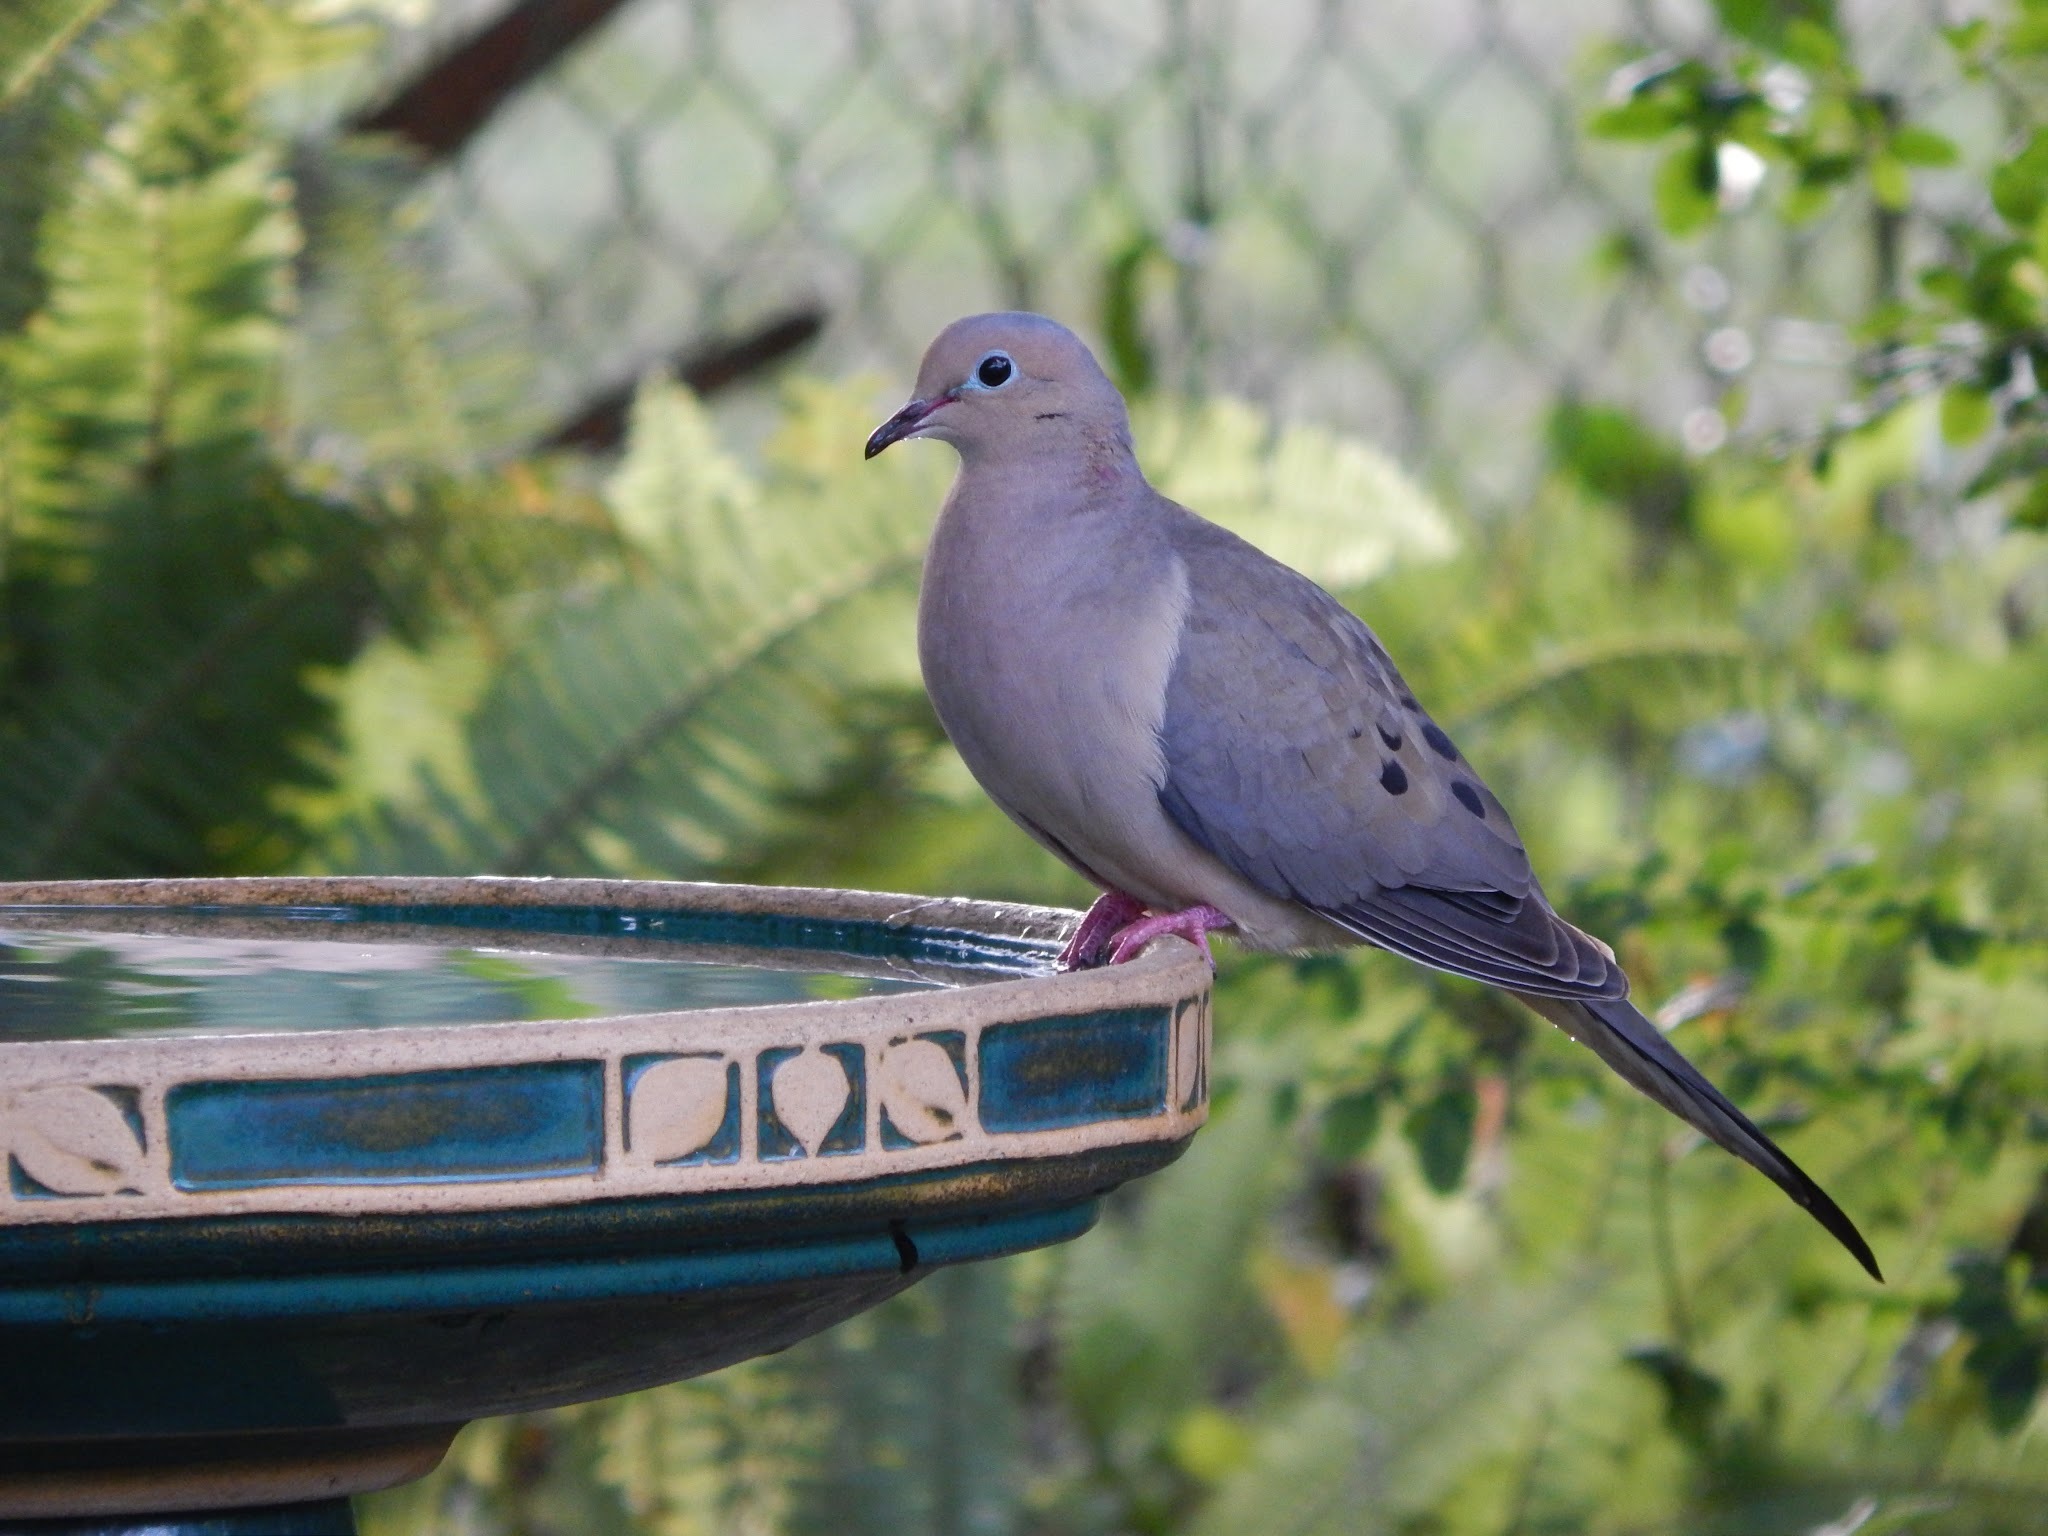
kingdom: Animalia
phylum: Chordata
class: Aves
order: Columbiformes
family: Columbidae
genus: Zenaida
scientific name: Zenaida macroura
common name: Mourning dove
